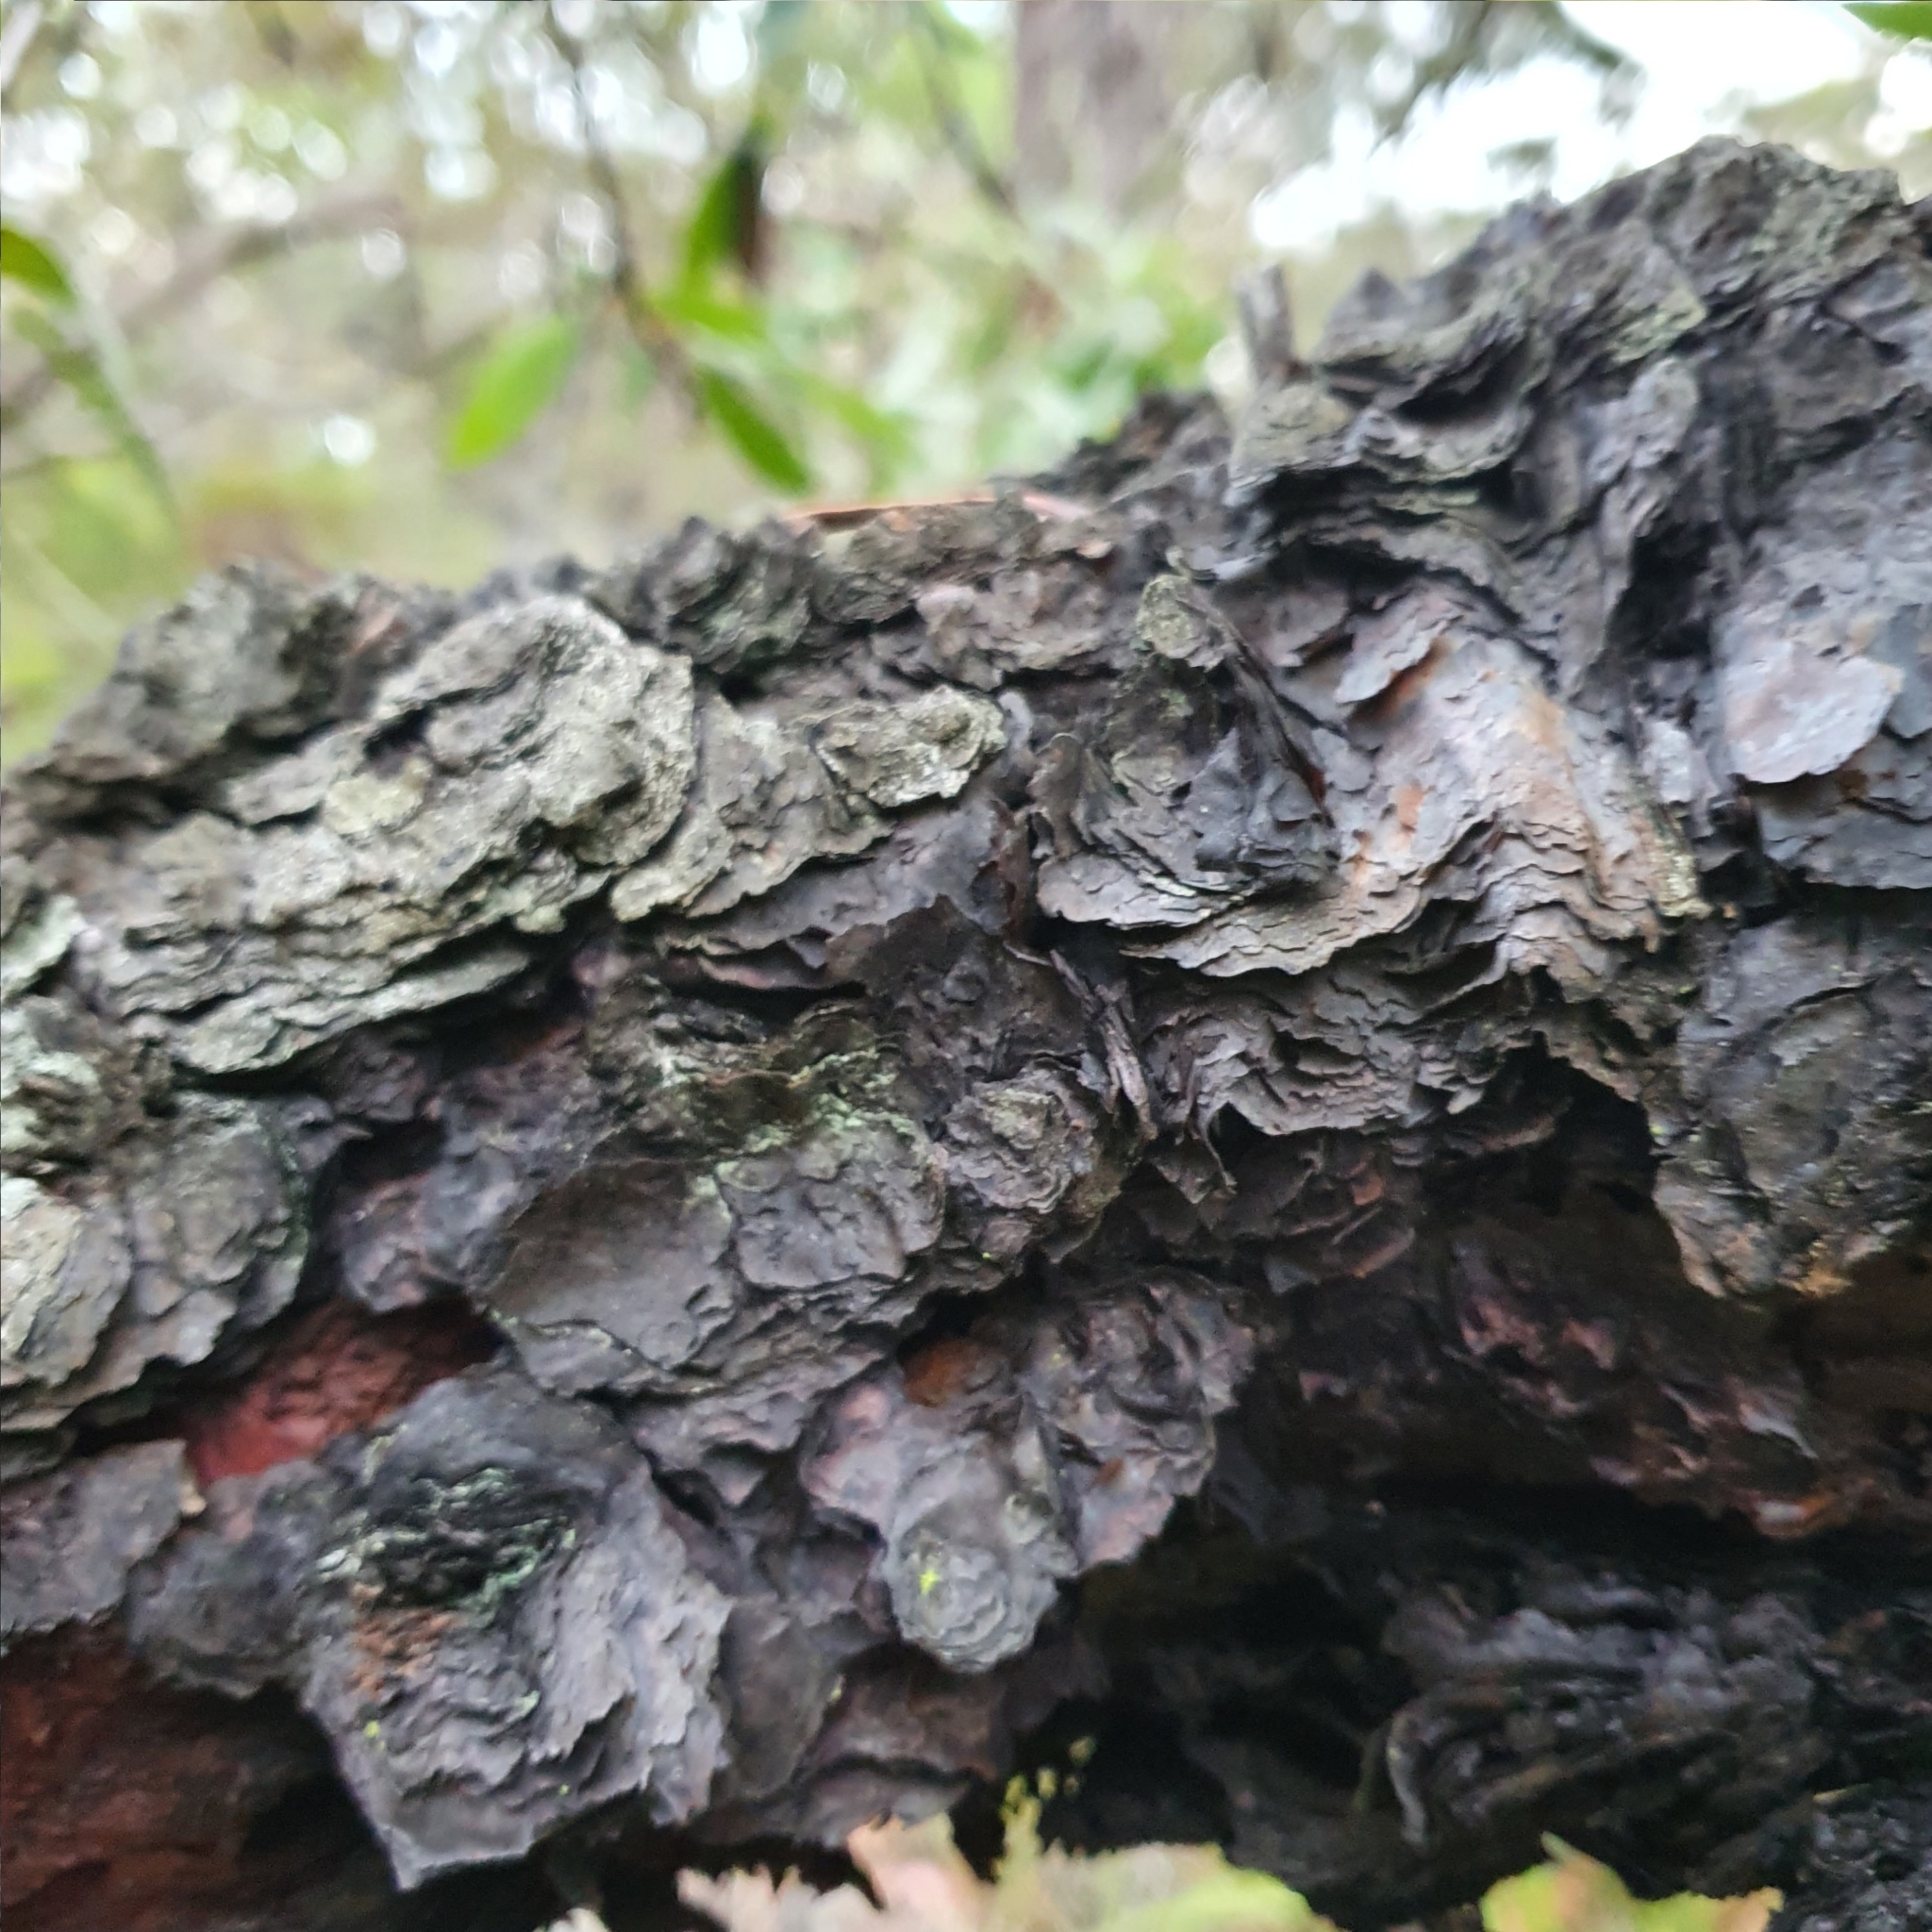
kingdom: Plantae
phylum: Tracheophyta
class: Magnoliopsida
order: Proteales
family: Proteaceae
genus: Persoonia
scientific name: Persoonia levis
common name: Smooth geebung
